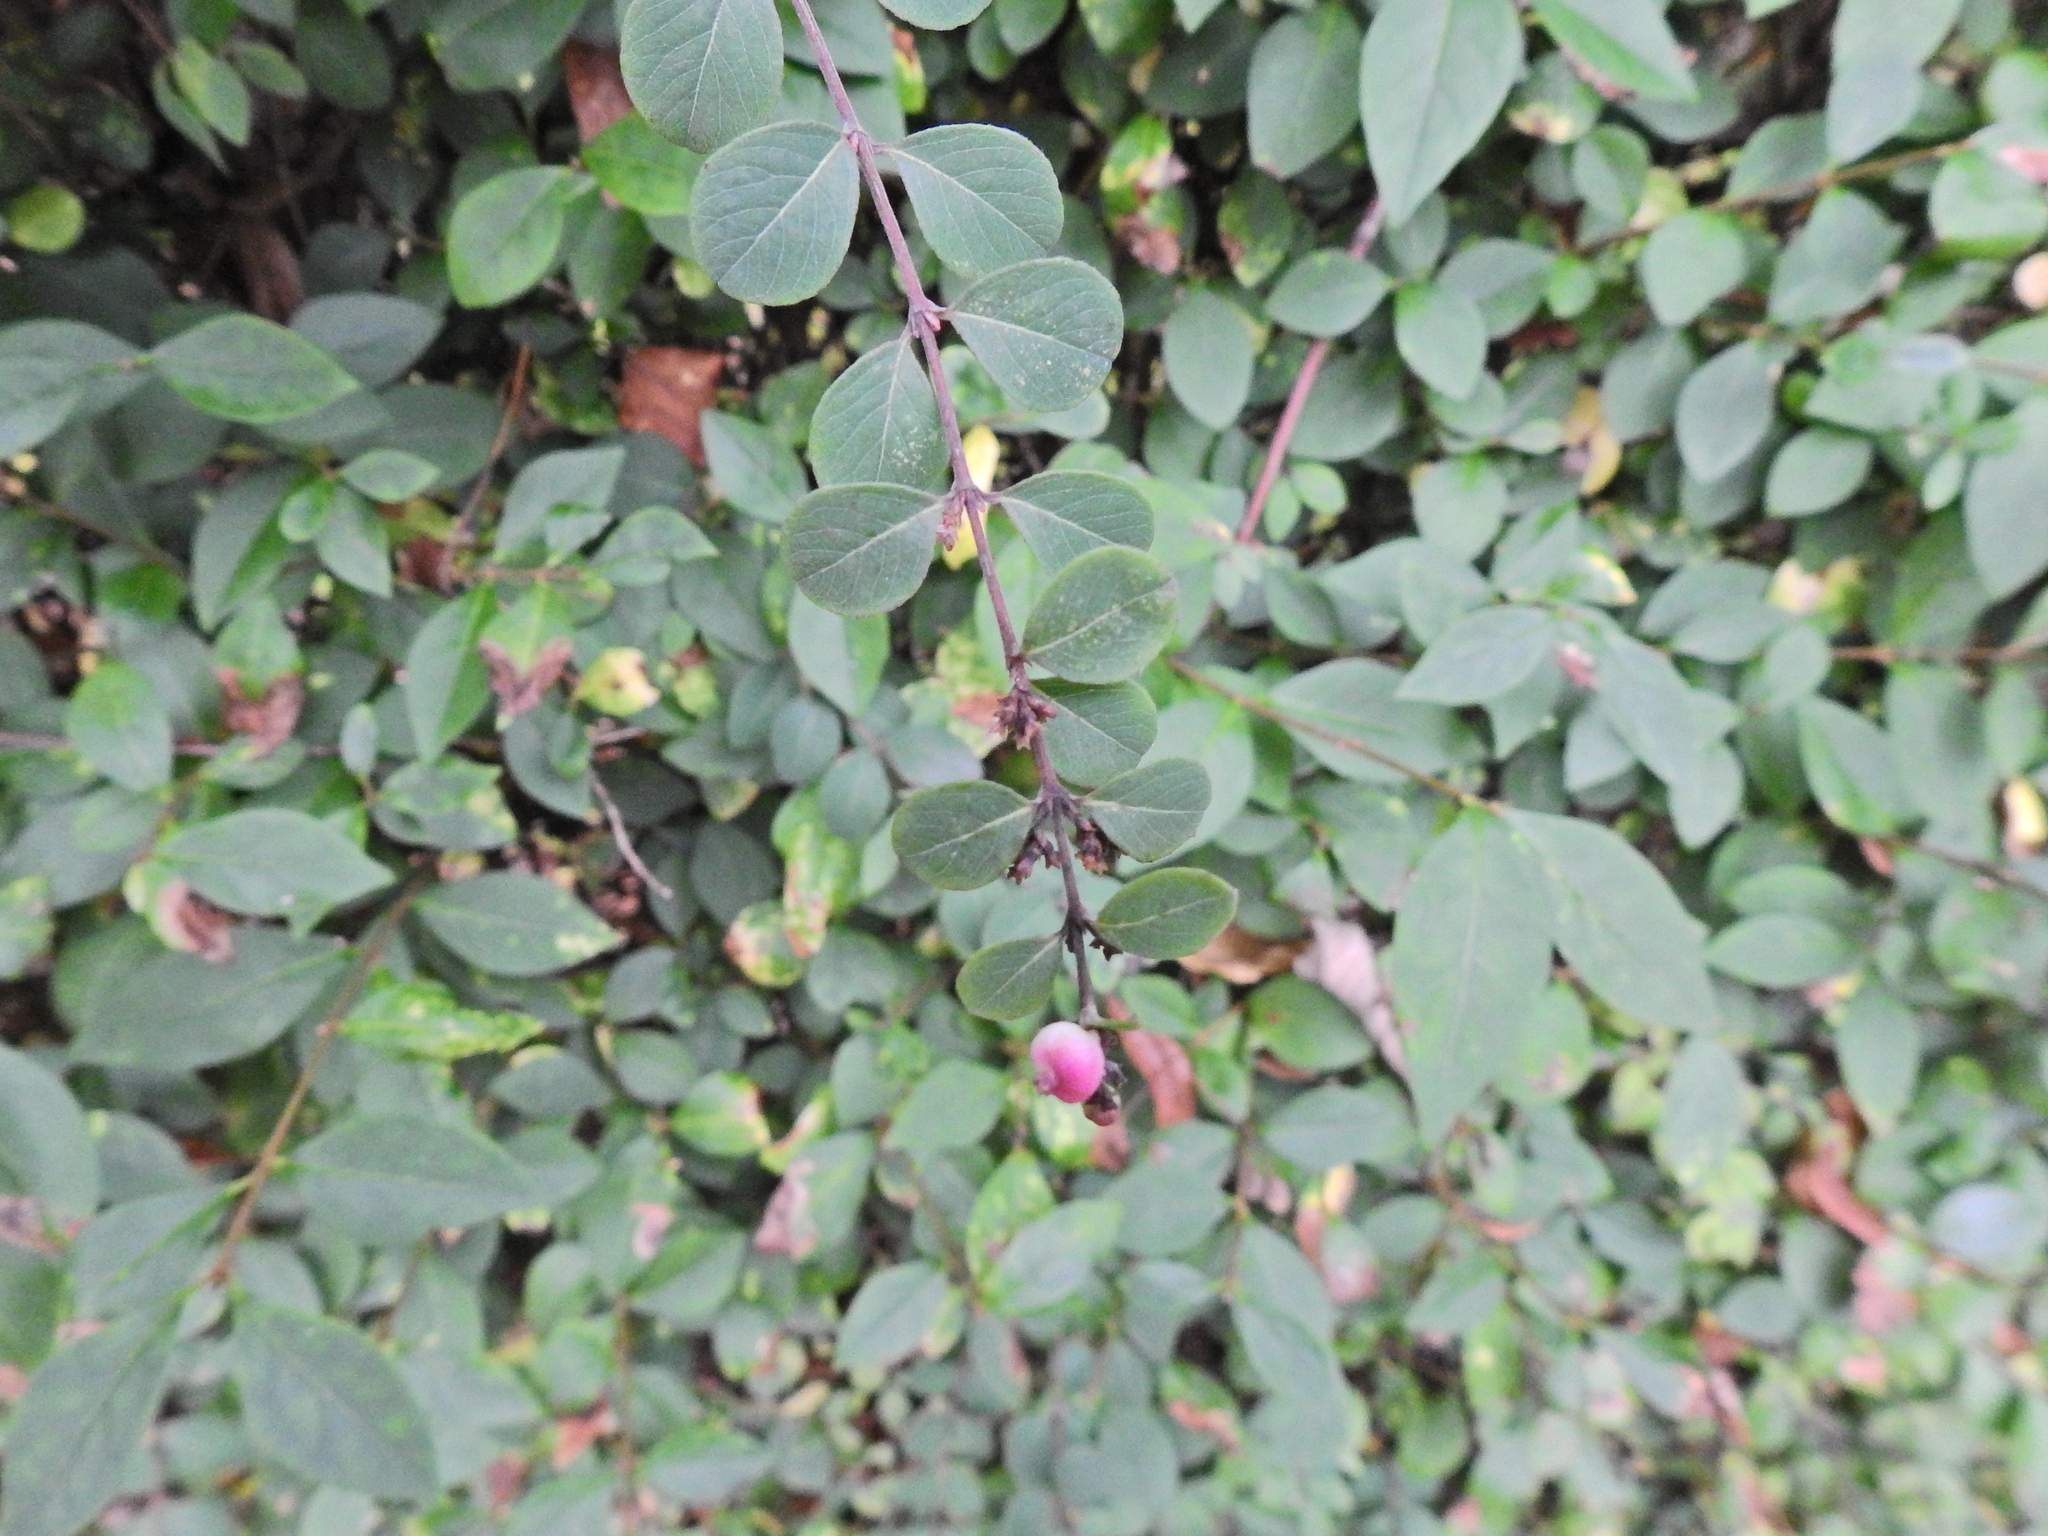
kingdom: Plantae
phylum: Tracheophyta
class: Magnoliopsida
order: Dipsacales
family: Caprifoliaceae
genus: Symphoricarpos
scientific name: Symphoricarpos doorenbosii
